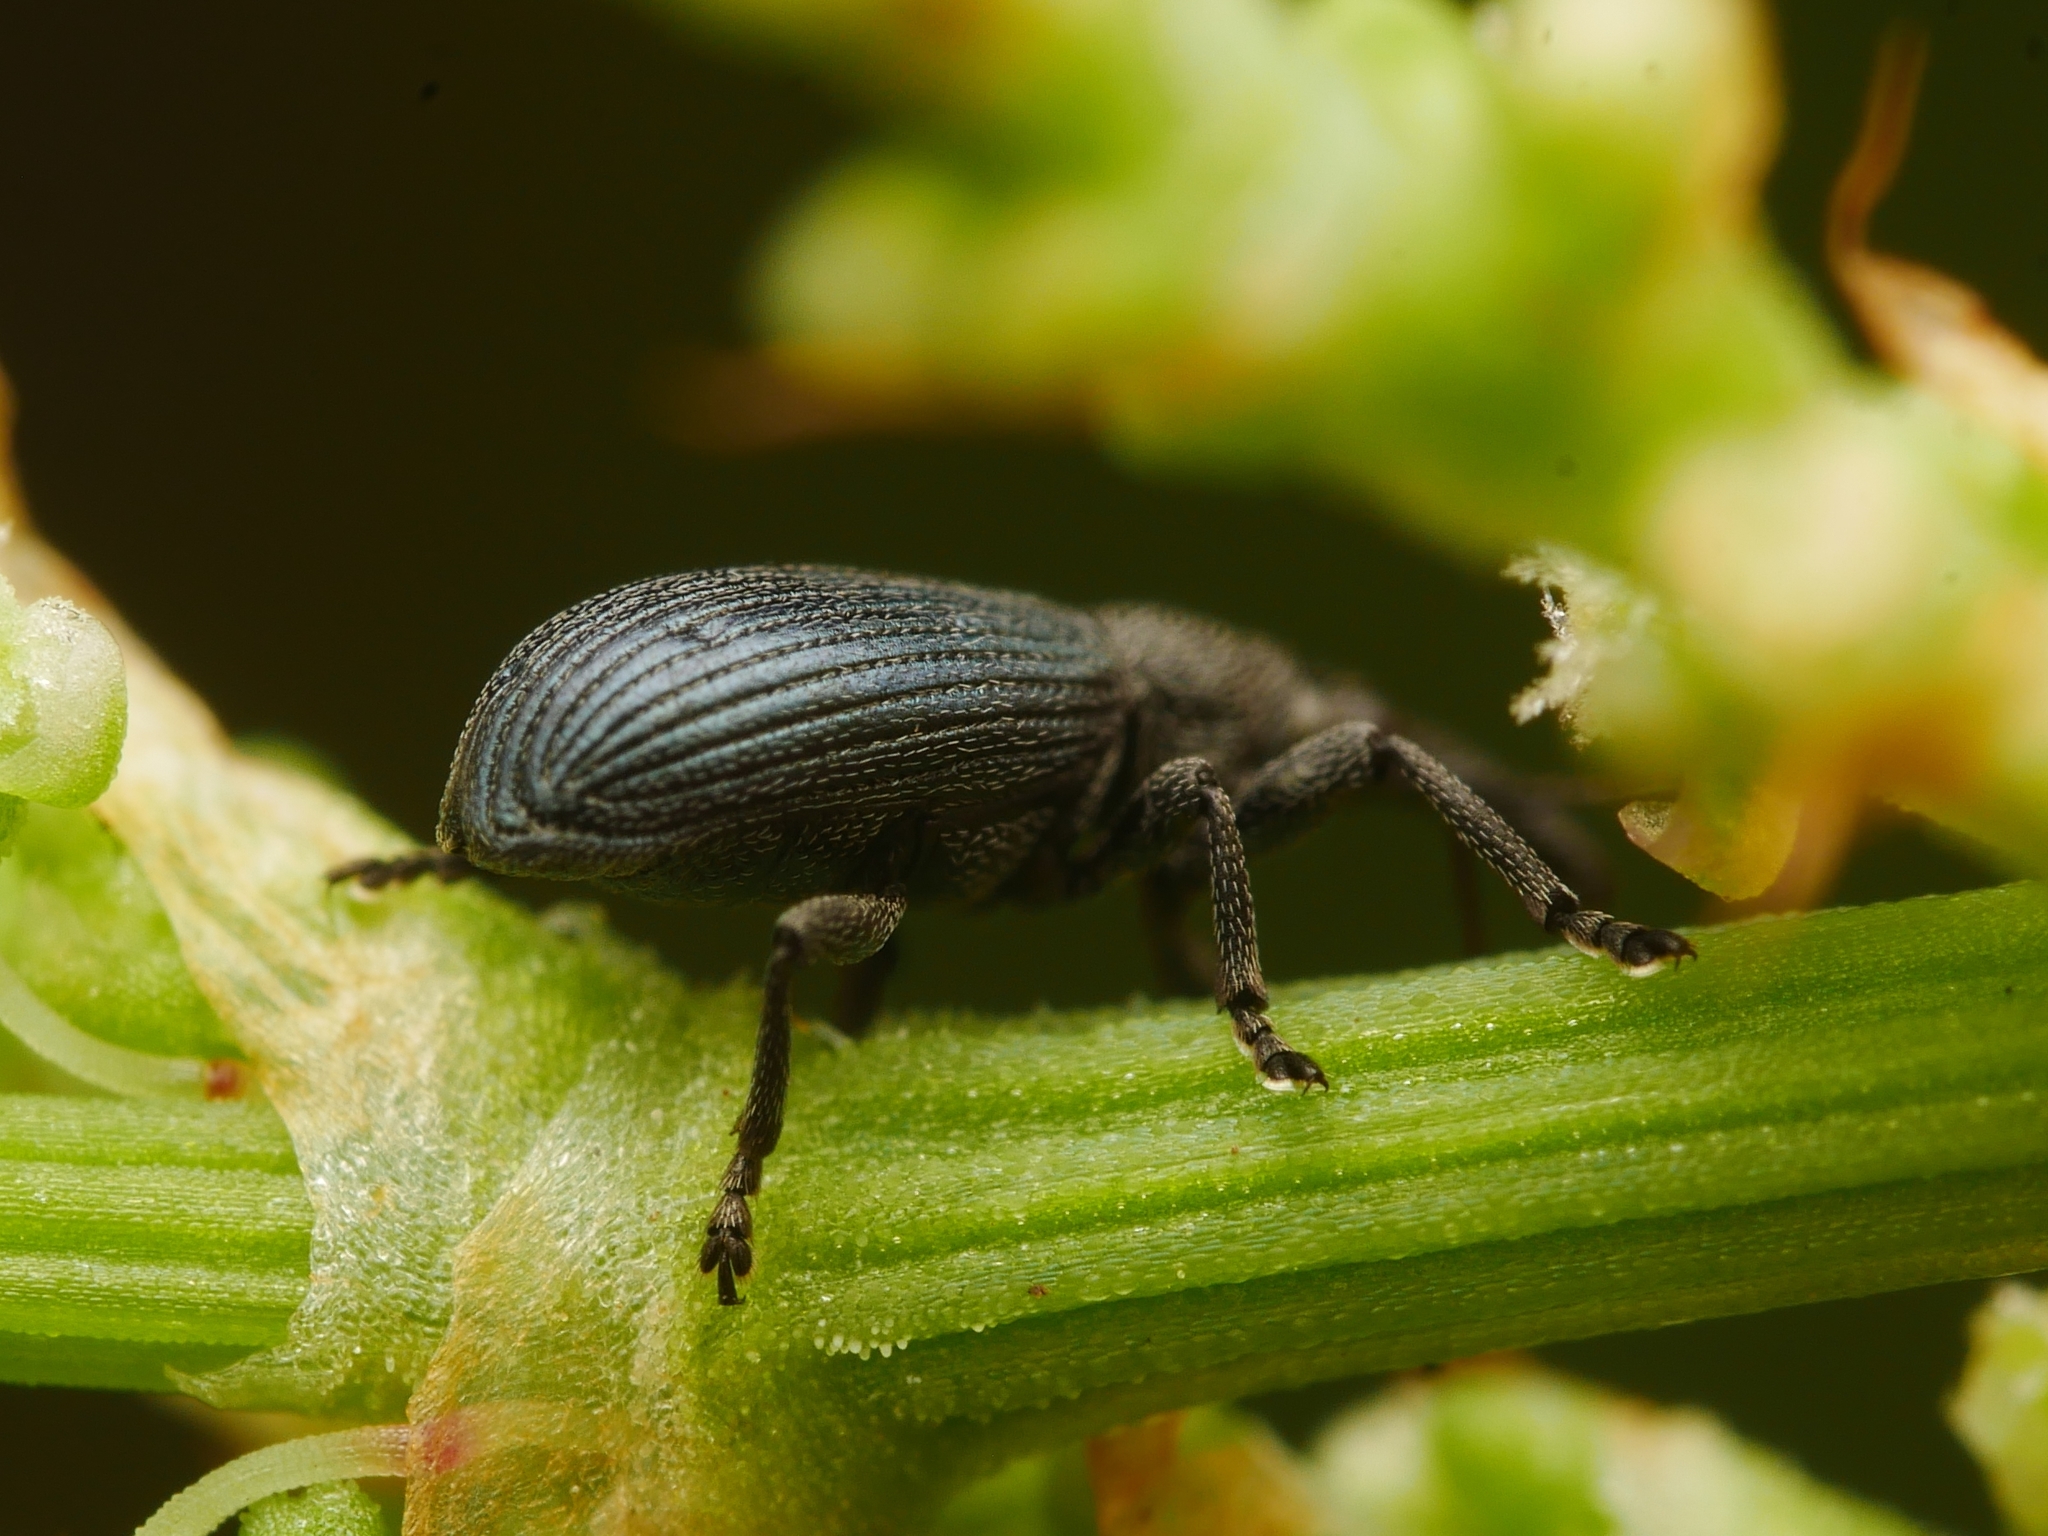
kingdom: Animalia
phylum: Arthropoda
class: Insecta
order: Coleoptera
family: Brentidae
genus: Perapion
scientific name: Perapion violaceum
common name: Beetle
